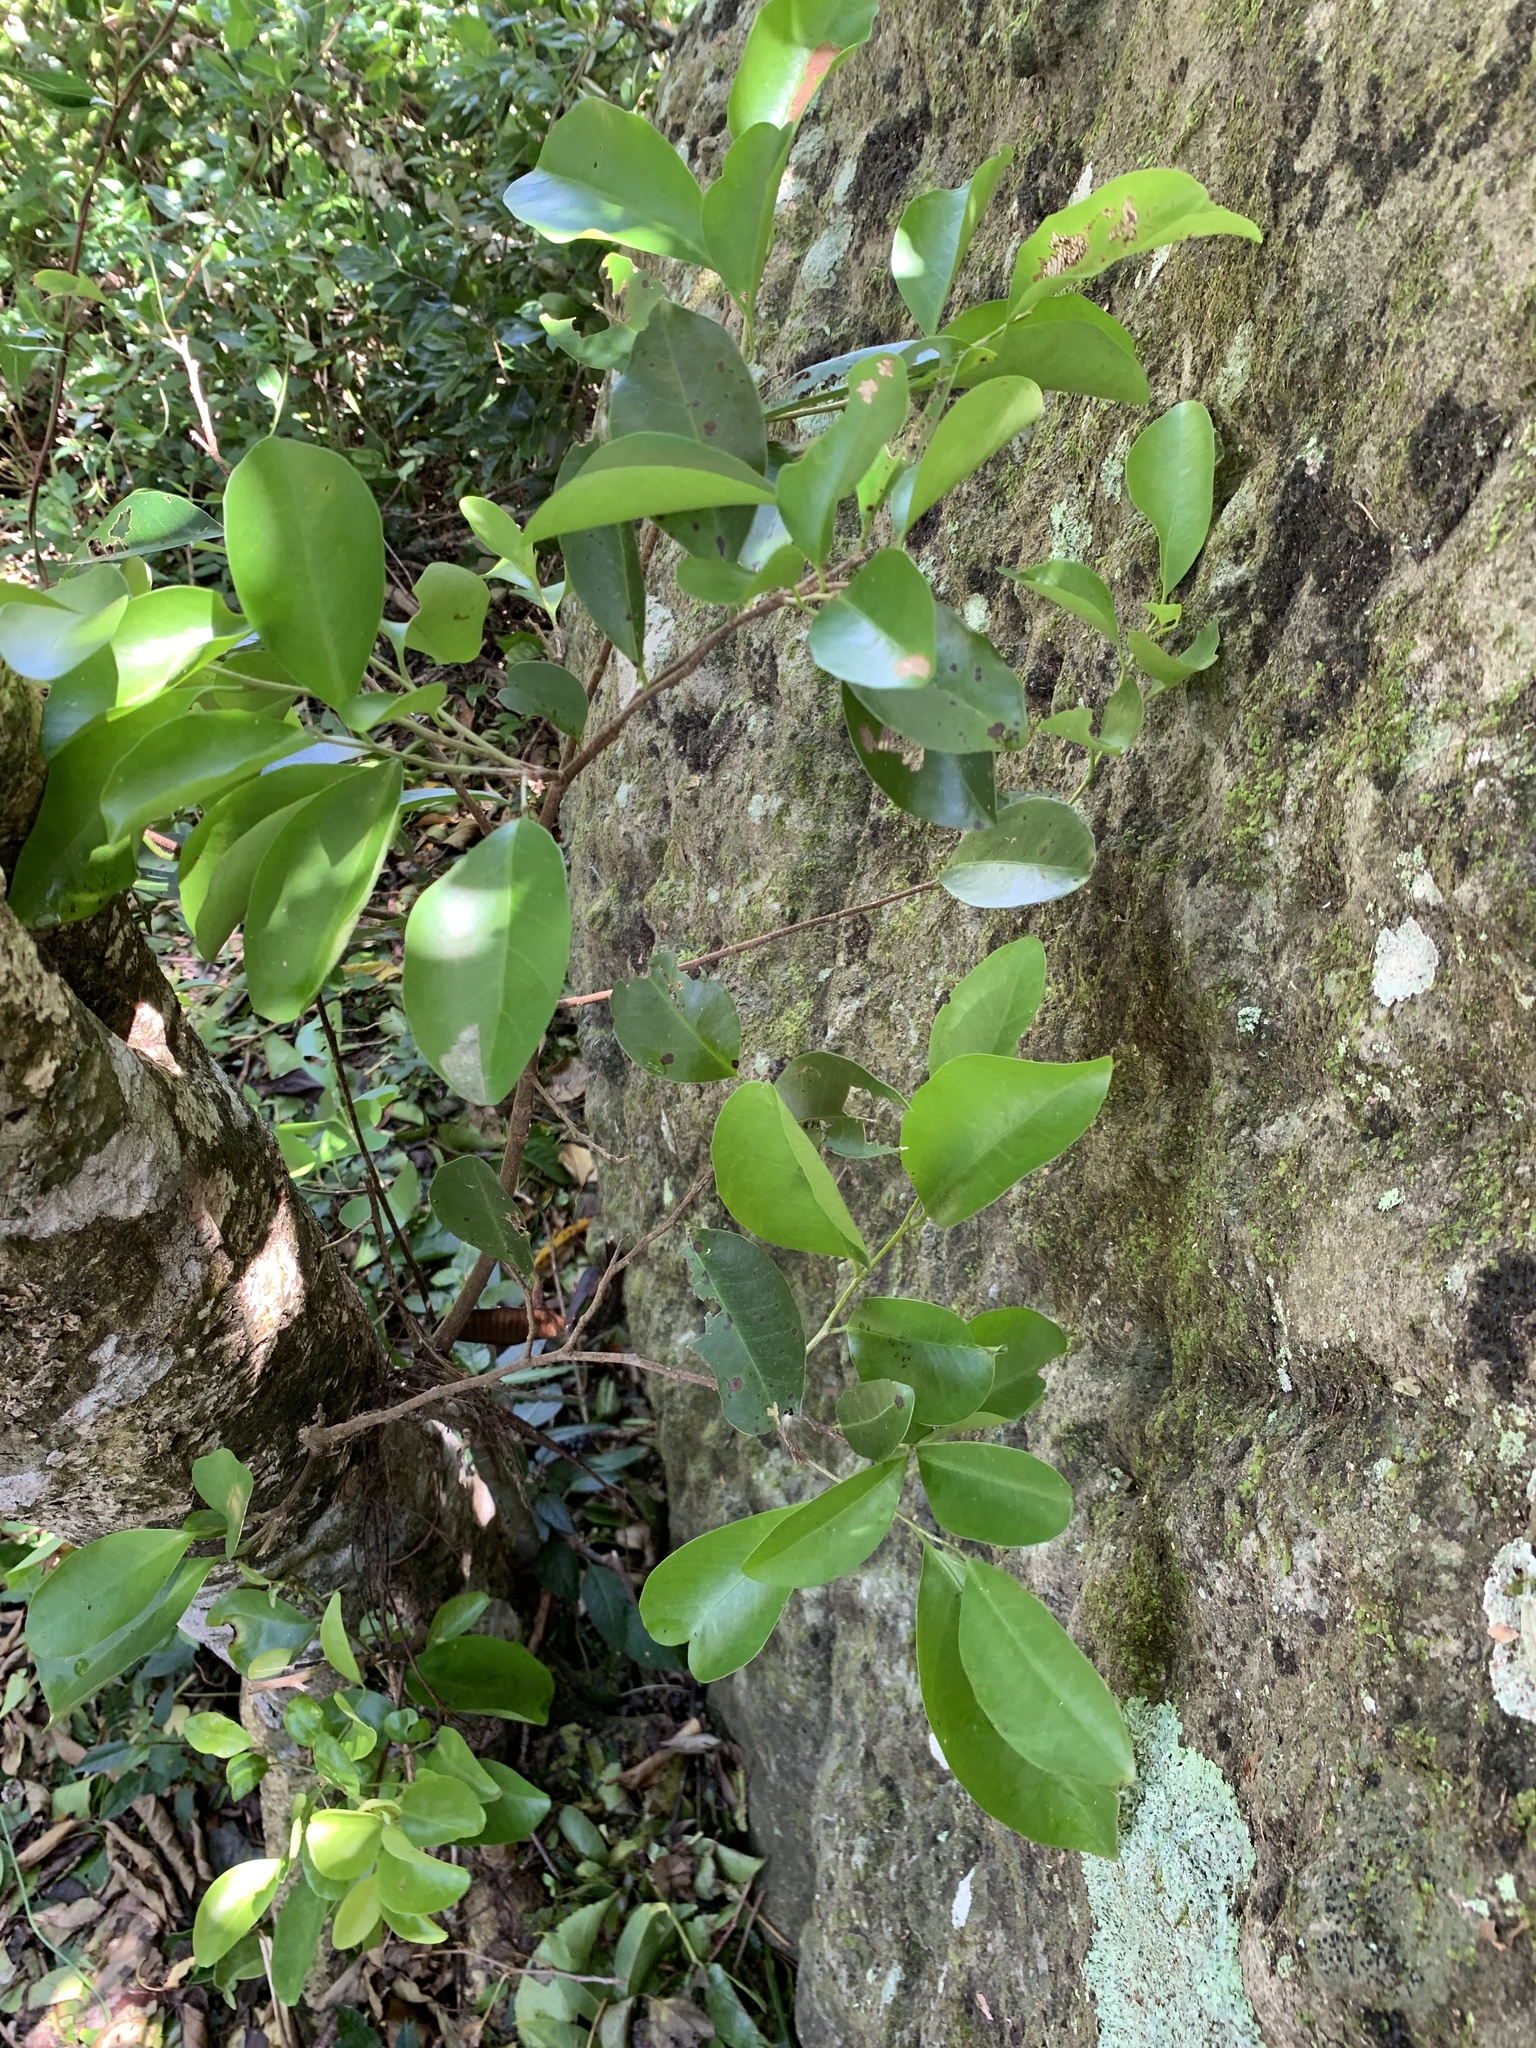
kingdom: Plantae
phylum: Tracheophyta
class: Magnoliopsida
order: Malpighiales
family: Putranjivaceae
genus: Drypetes
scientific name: Drypetes integerrima
